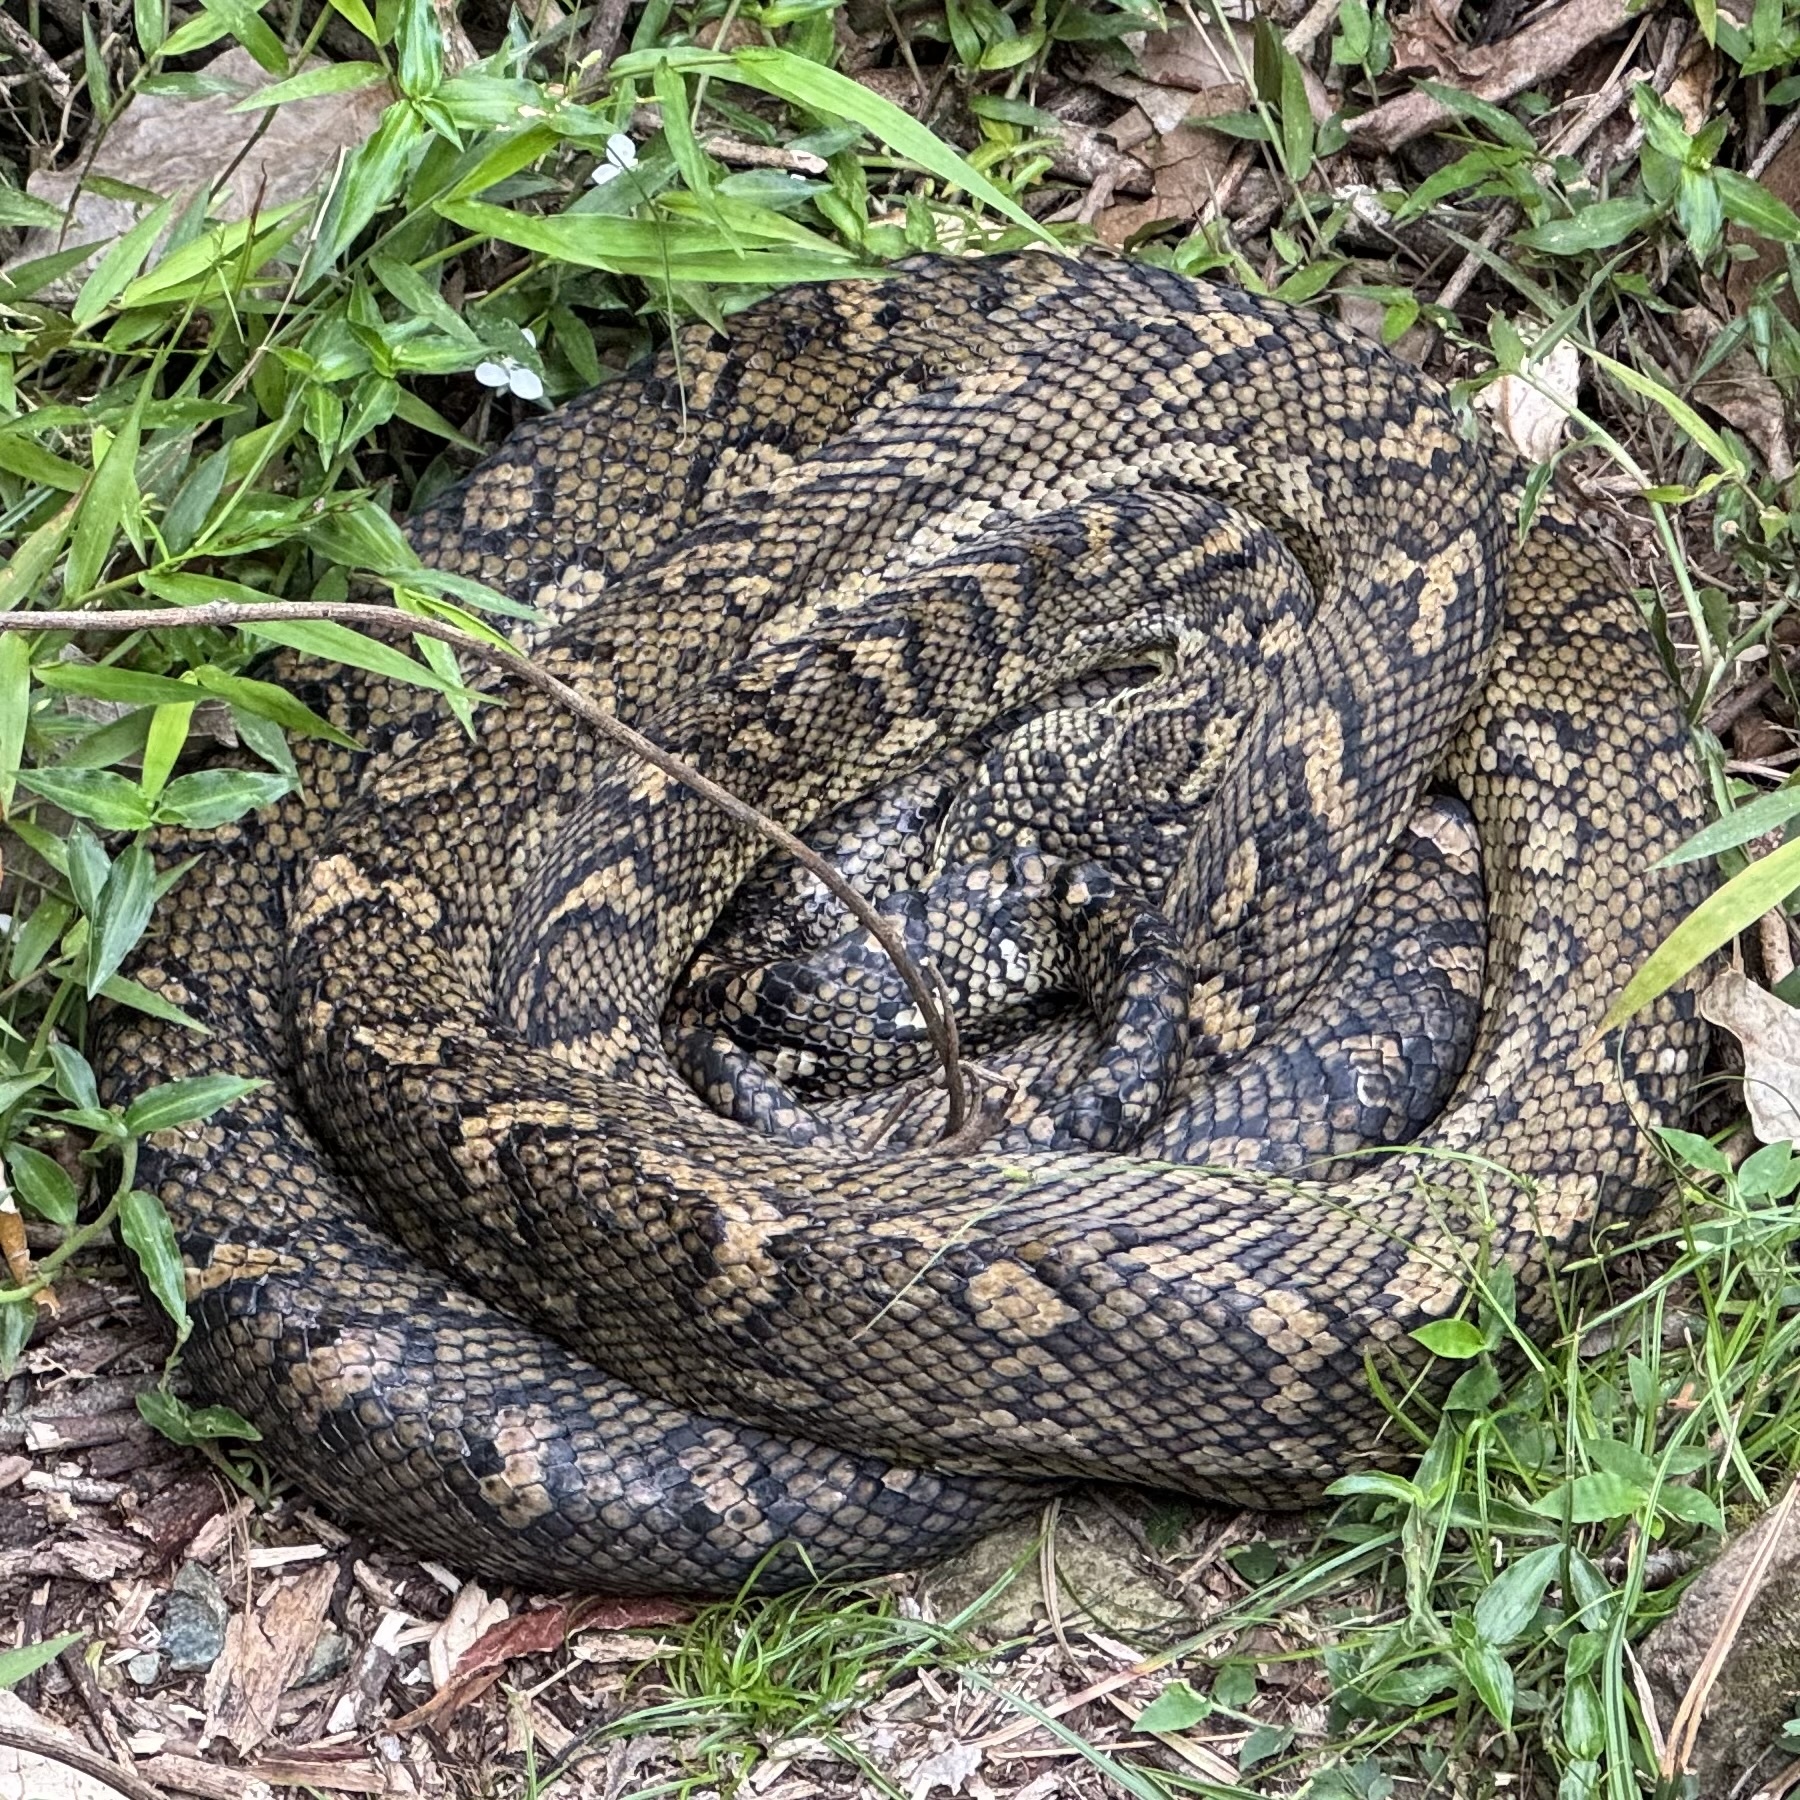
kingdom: Animalia
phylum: Chordata
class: Squamata
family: Pythonidae
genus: Morelia
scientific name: Morelia spilota
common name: Carpet python
